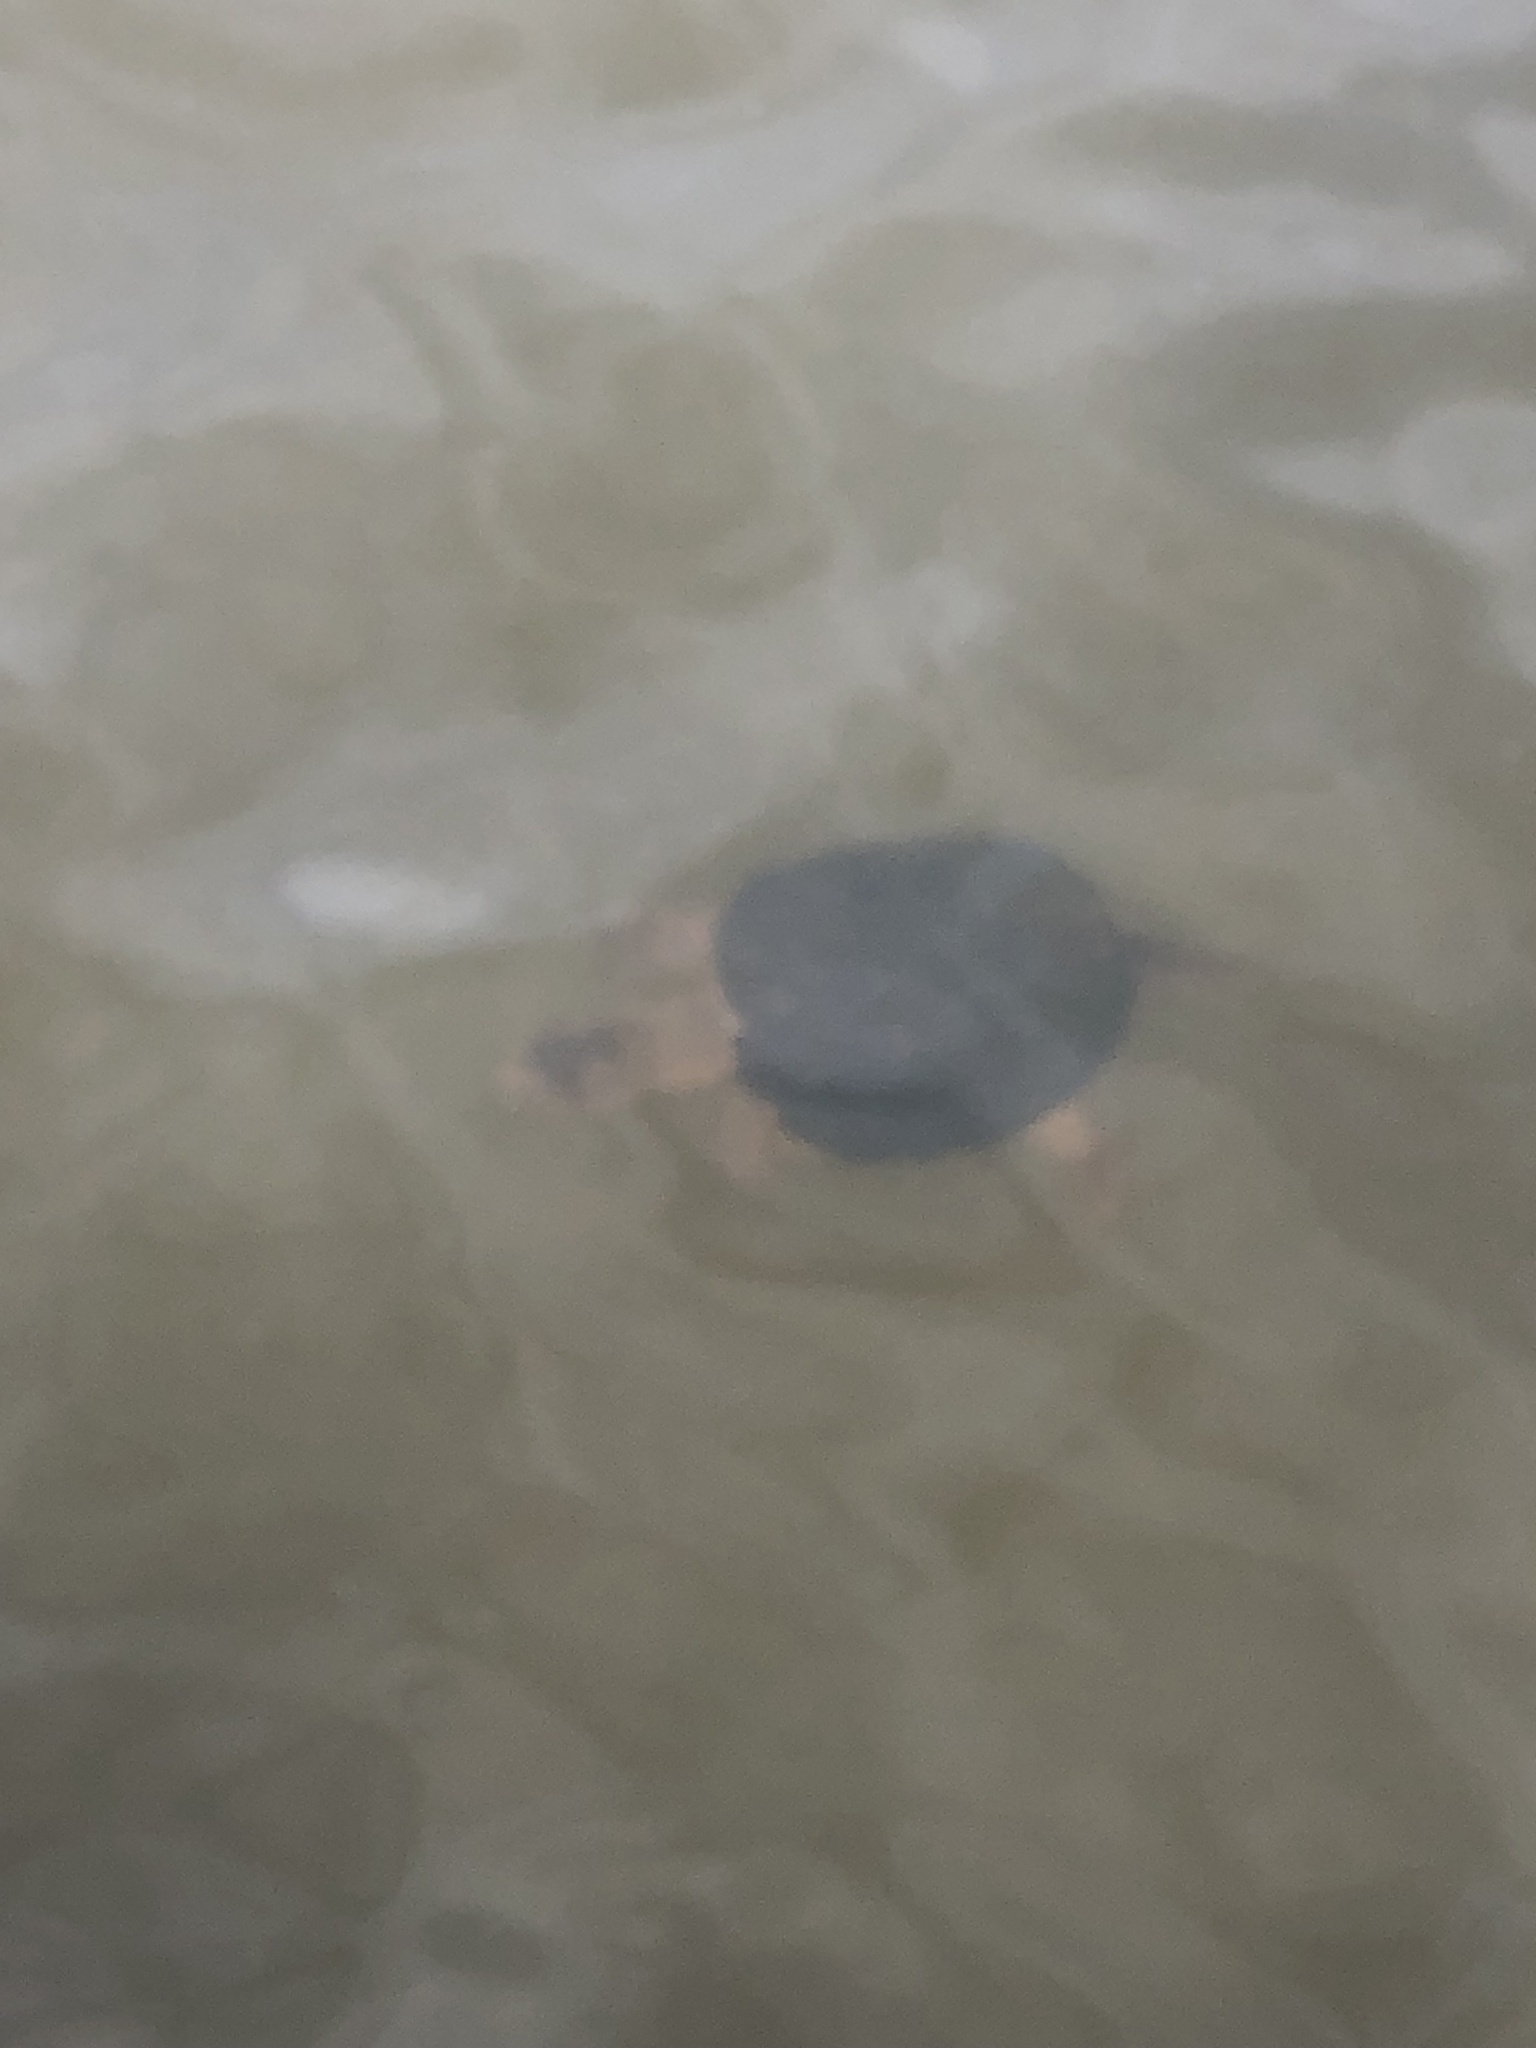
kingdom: Animalia
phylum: Chordata
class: Testudines
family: Chelydridae
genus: Chelydra
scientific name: Chelydra serpentina
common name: Common snapping turtle
